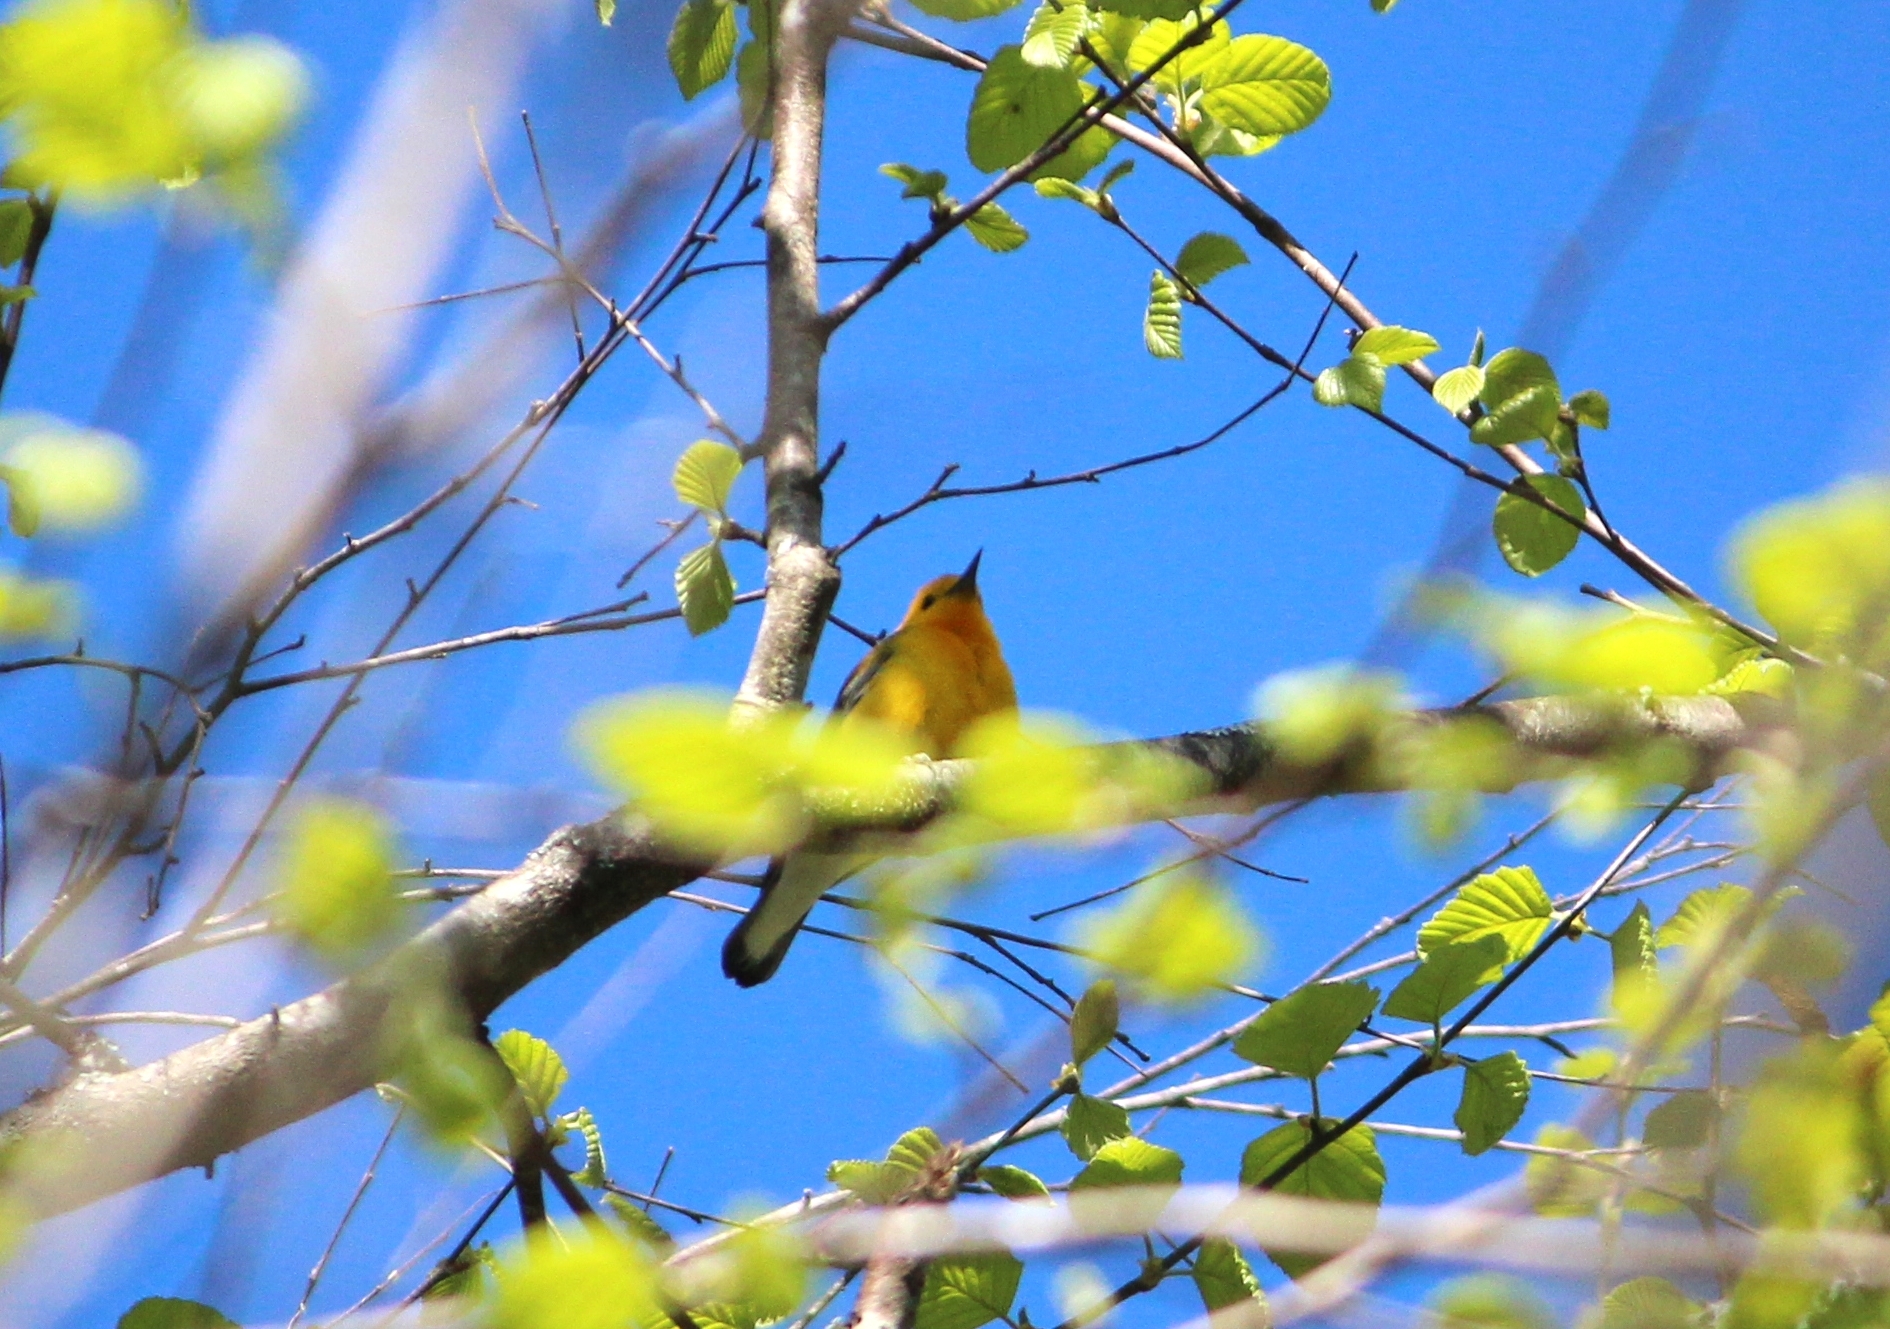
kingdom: Animalia
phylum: Chordata
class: Aves
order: Passeriformes
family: Parulidae
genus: Protonotaria
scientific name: Protonotaria citrea
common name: Prothonotary warbler
